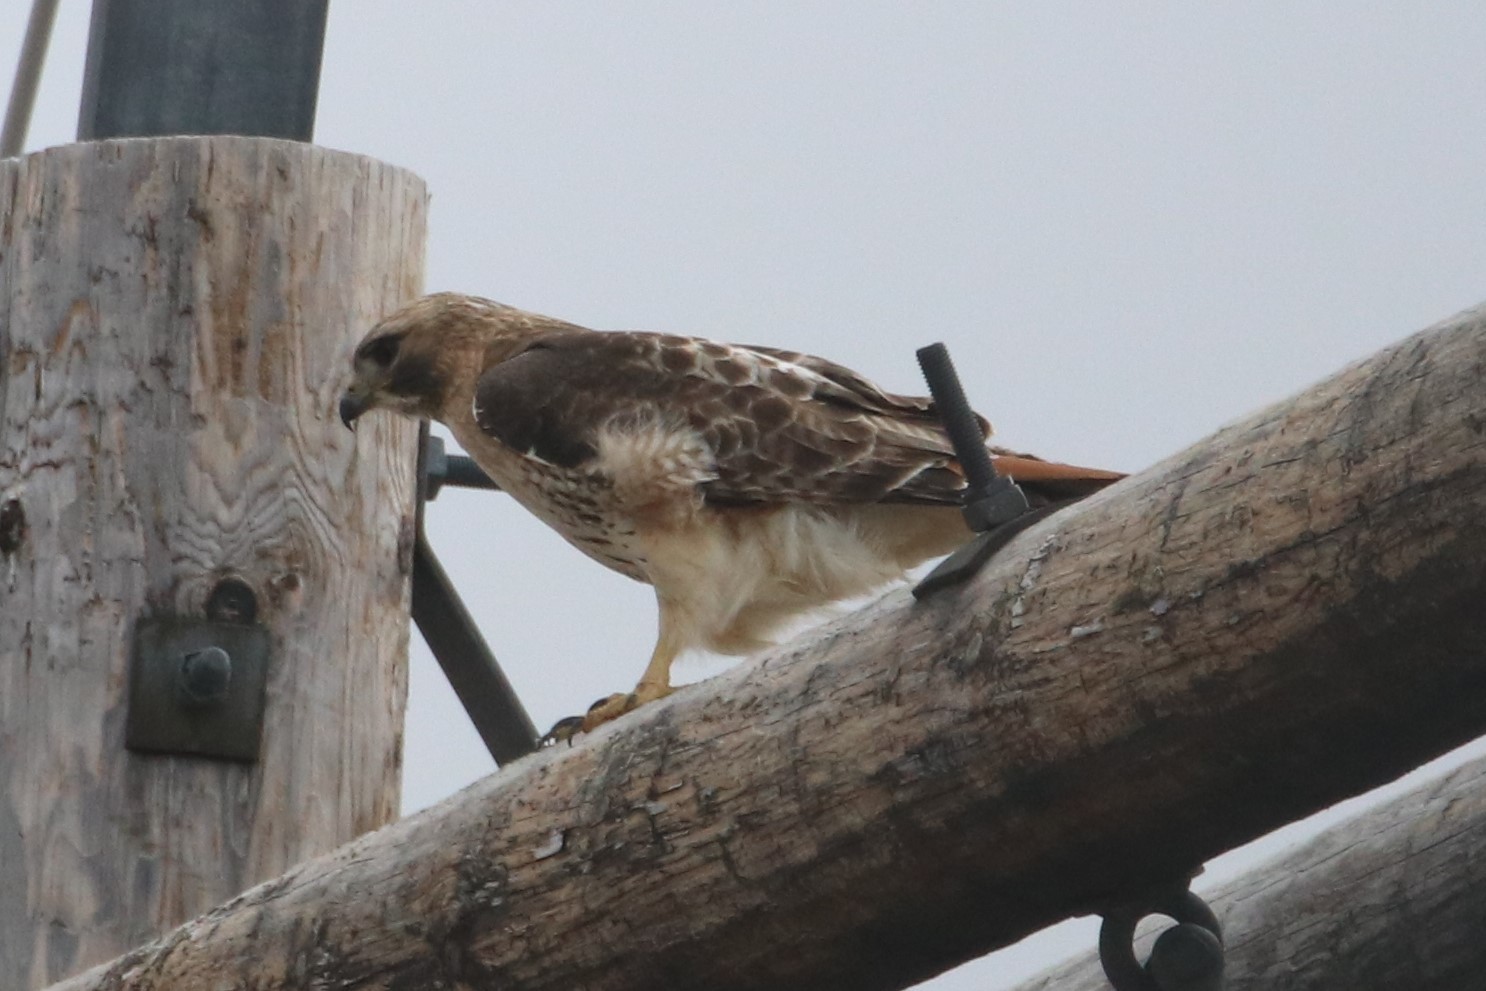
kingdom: Animalia
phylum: Chordata
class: Aves
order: Accipitriformes
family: Accipitridae
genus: Buteo
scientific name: Buteo jamaicensis
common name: Red-tailed hawk
